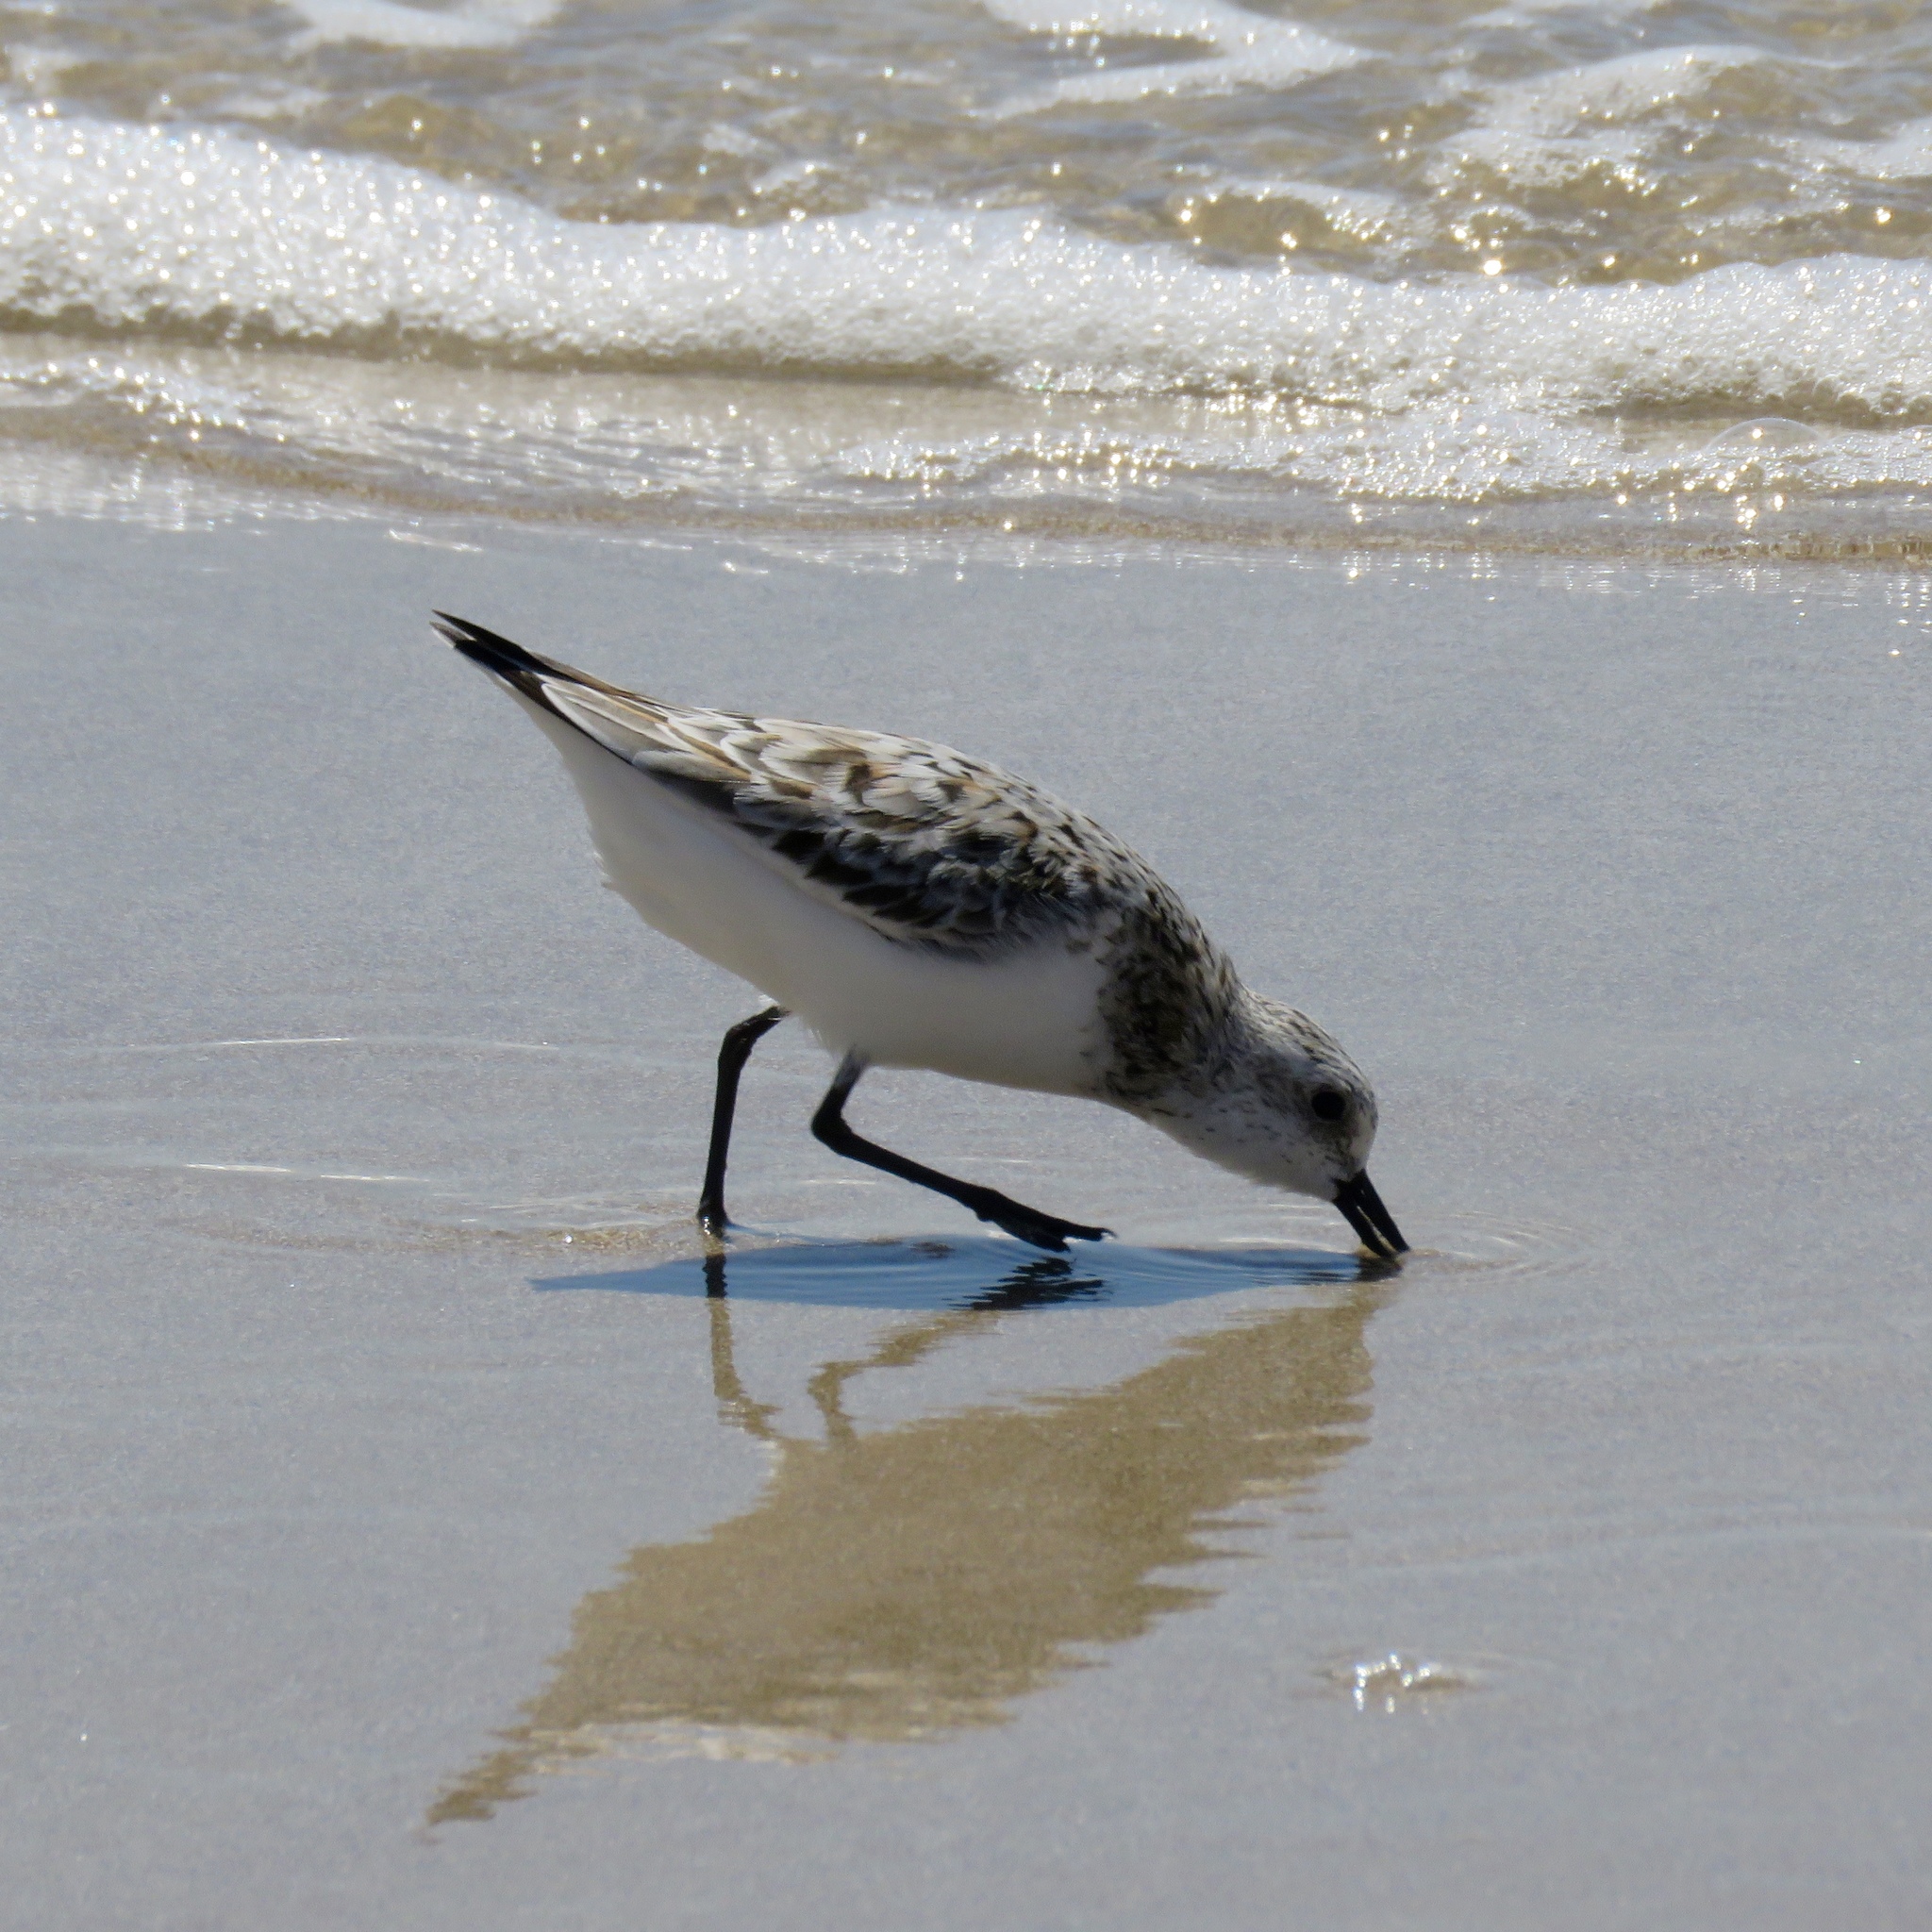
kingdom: Animalia
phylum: Chordata
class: Aves
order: Charadriiformes
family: Scolopacidae
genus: Calidris
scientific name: Calidris alba
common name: Sanderling
